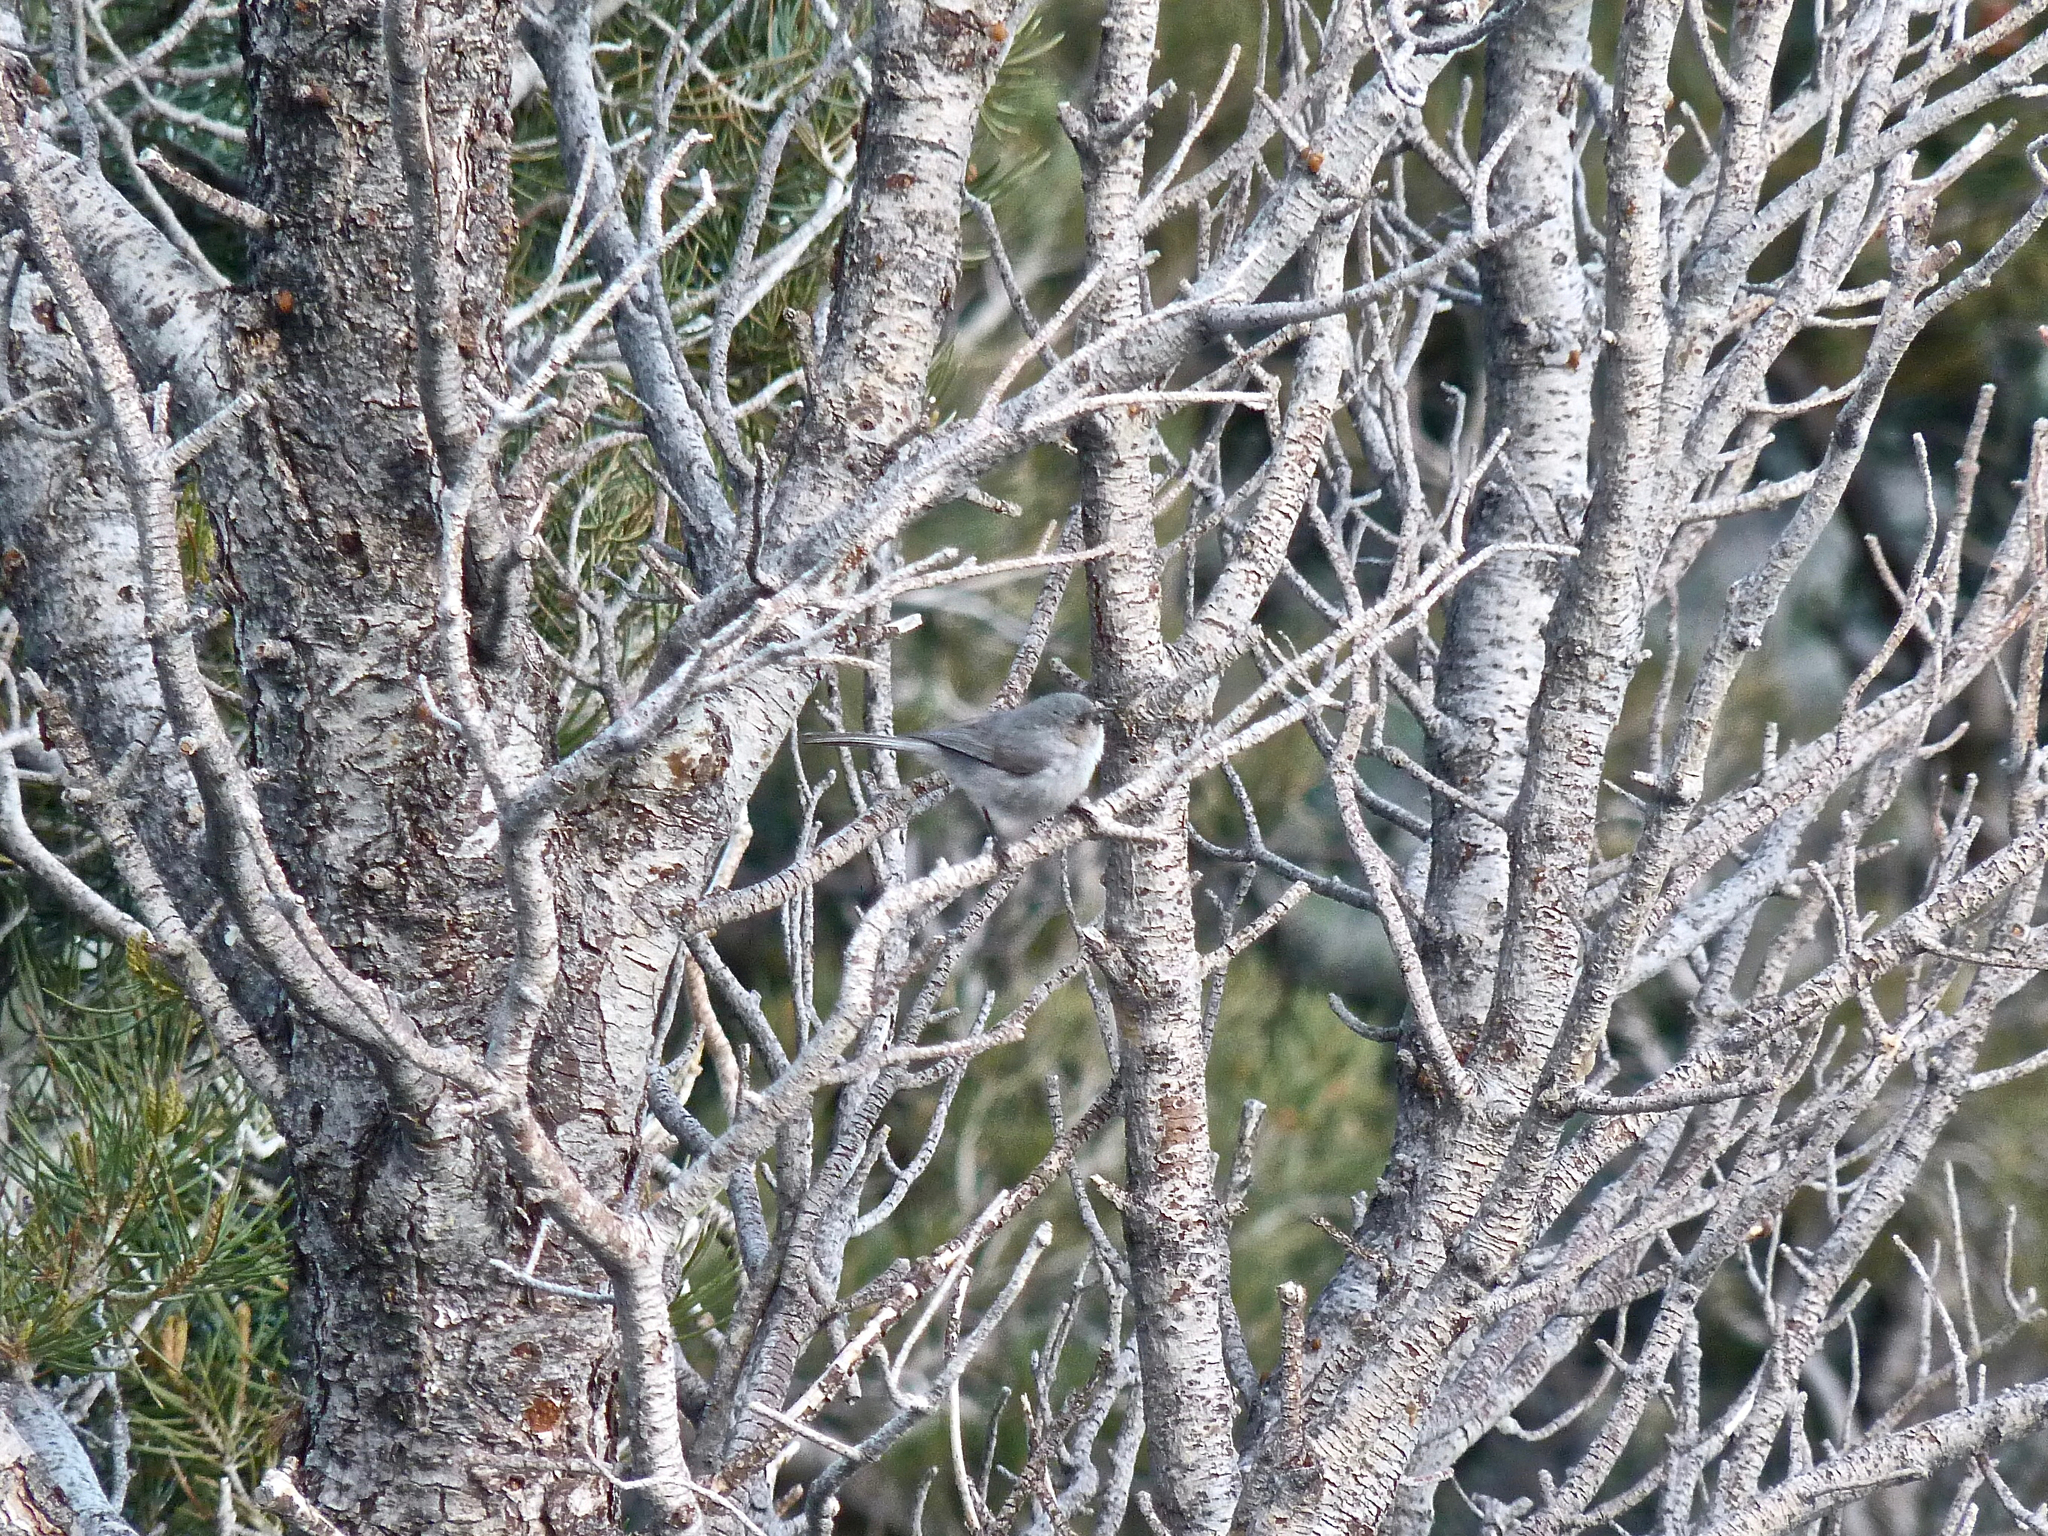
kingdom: Animalia
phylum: Chordata
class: Aves
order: Passeriformes
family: Aegithalidae
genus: Psaltriparus
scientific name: Psaltriparus minimus
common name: American bushtit
